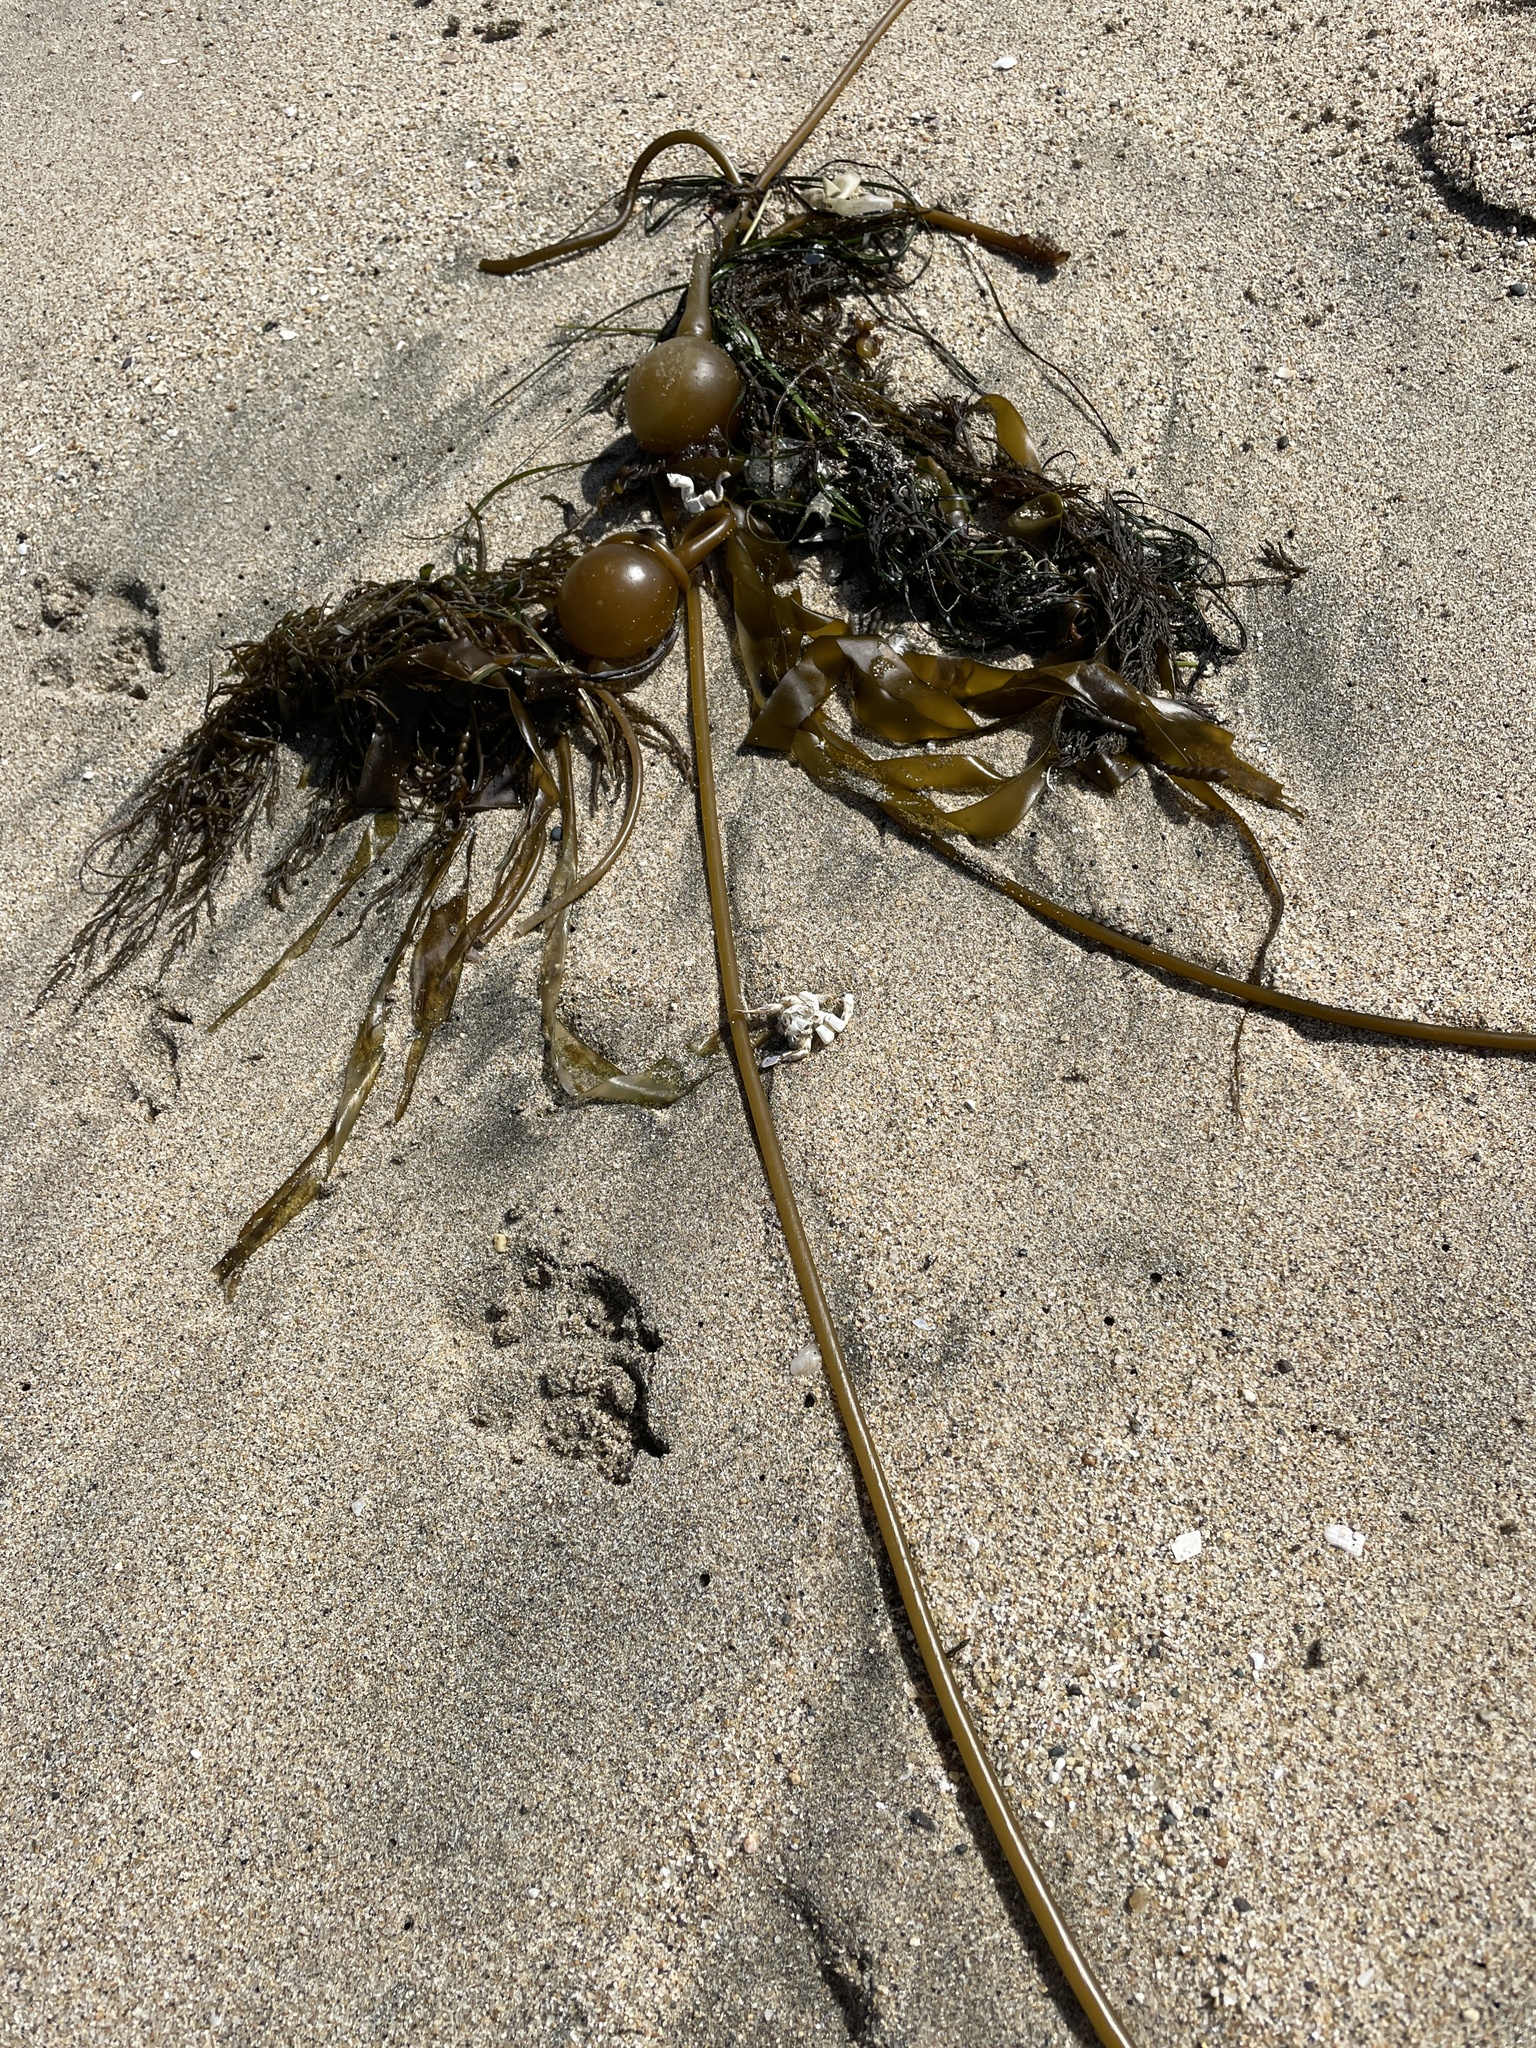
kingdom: Chromista
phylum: Ochrophyta
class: Phaeophyceae
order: Laminariales
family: Laminariaceae
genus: Nereocystis
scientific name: Nereocystis luetkeana
